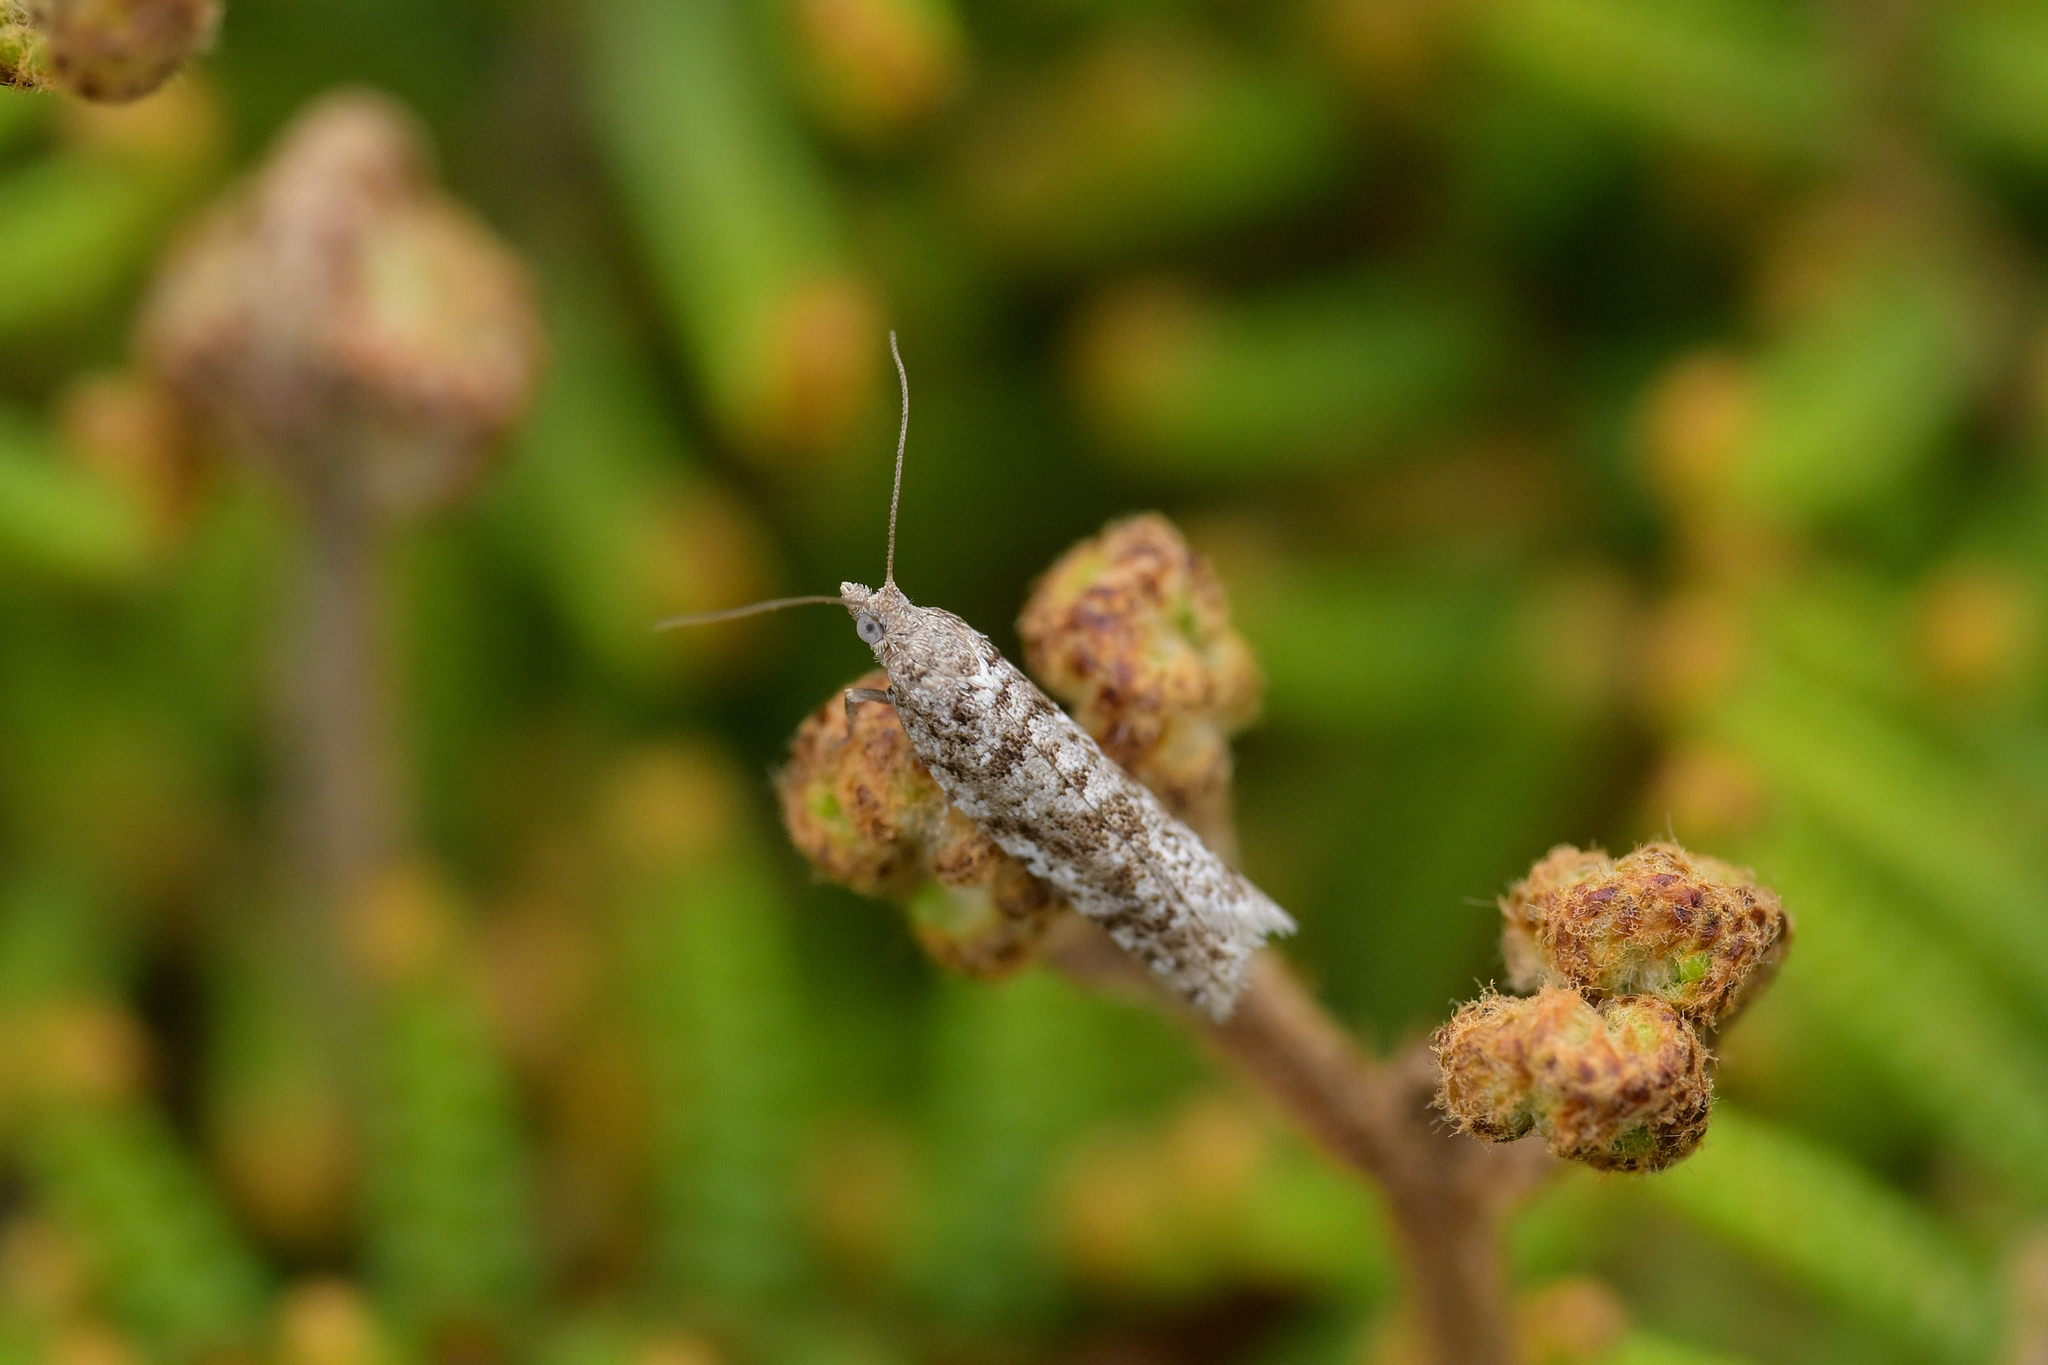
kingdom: Animalia
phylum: Arthropoda
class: Insecta
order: Lepidoptera
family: Tortricidae
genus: Ericodesma
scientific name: Ericodesma scruposa
